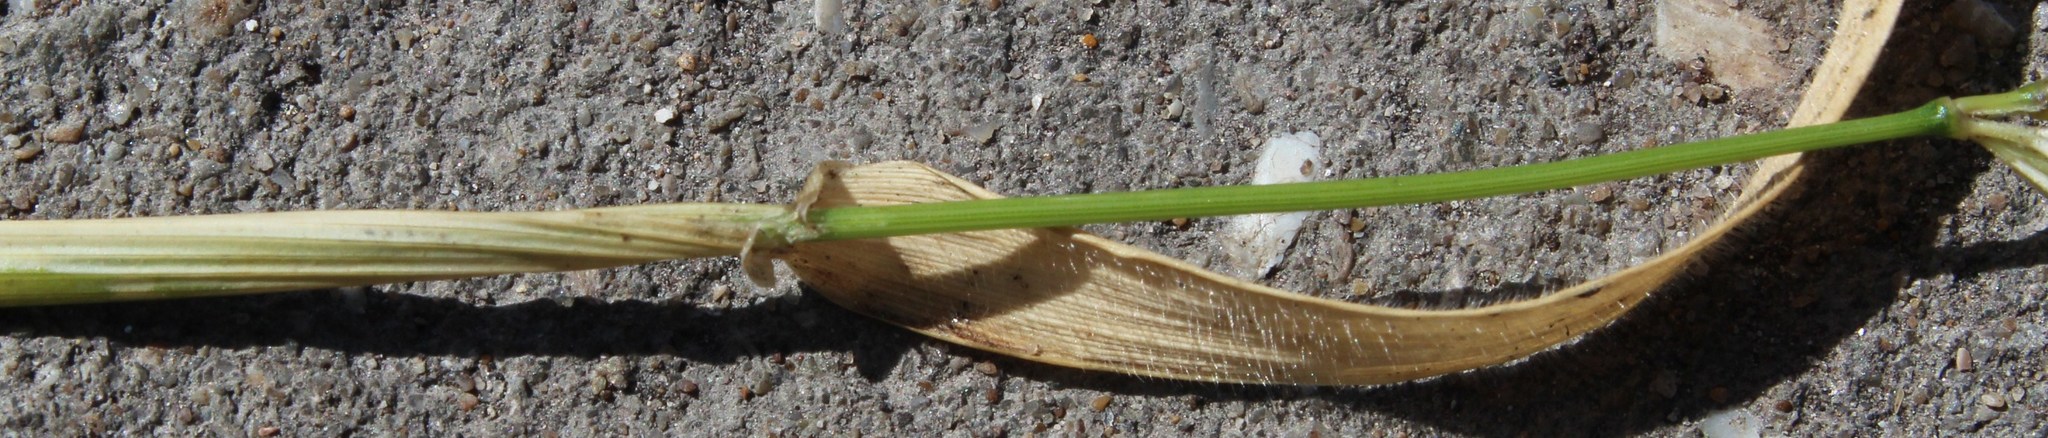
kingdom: Plantae
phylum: Tracheophyta
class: Liliopsida
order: Poales
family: Poaceae
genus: Hordeum
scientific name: Hordeum murinum
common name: Wall barley
